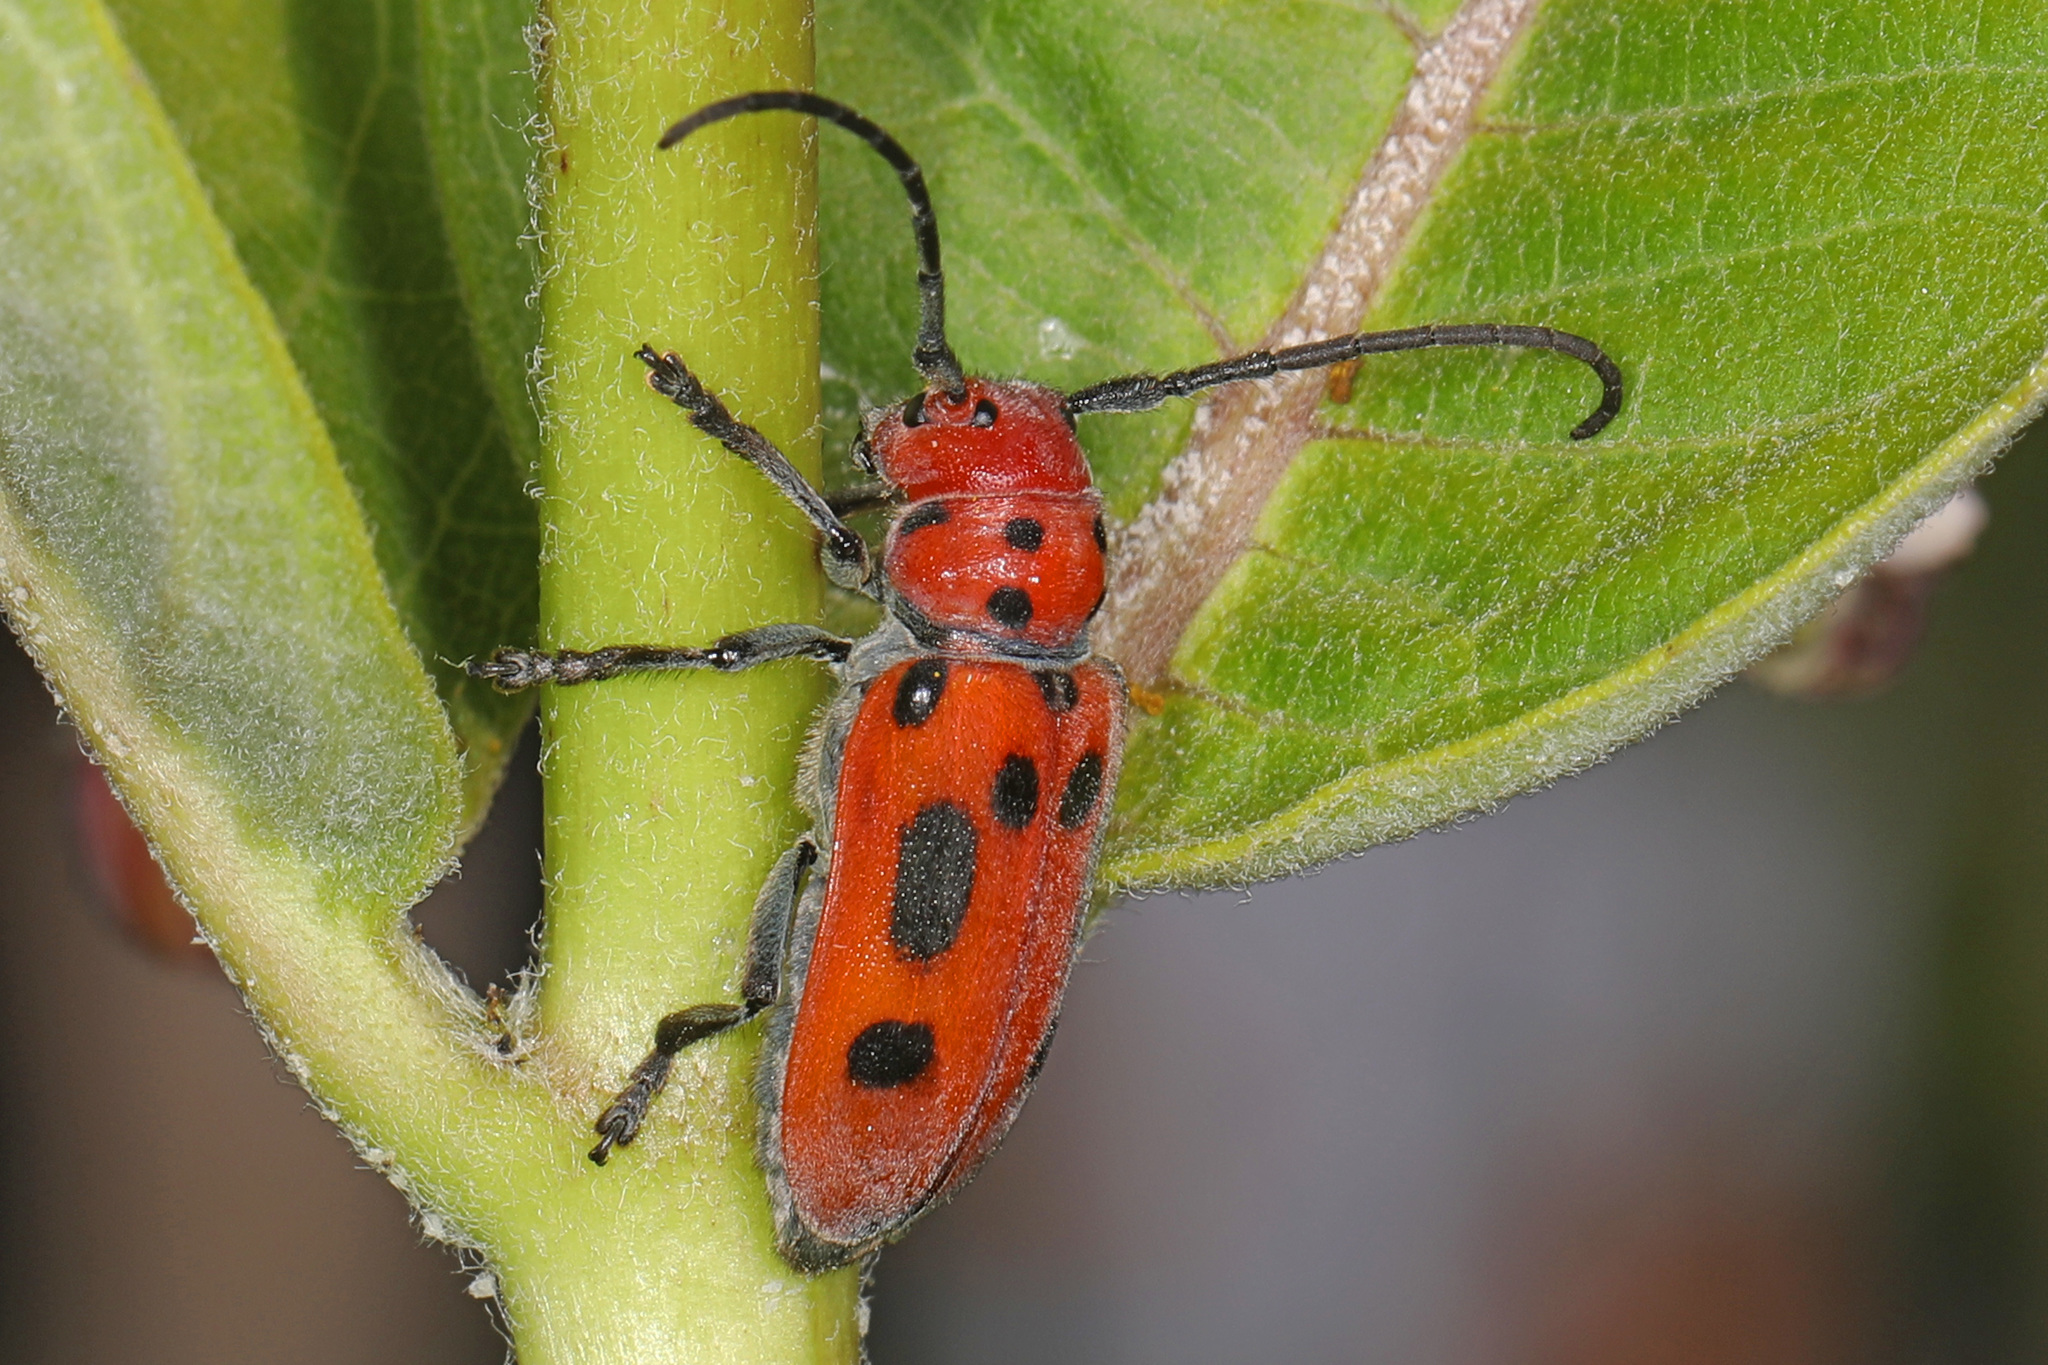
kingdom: Animalia
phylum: Arthropoda
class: Insecta
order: Coleoptera
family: Cerambycidae
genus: Tetraopes
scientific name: Tetraopes tetrophthalmus
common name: Red milkweed beetle
